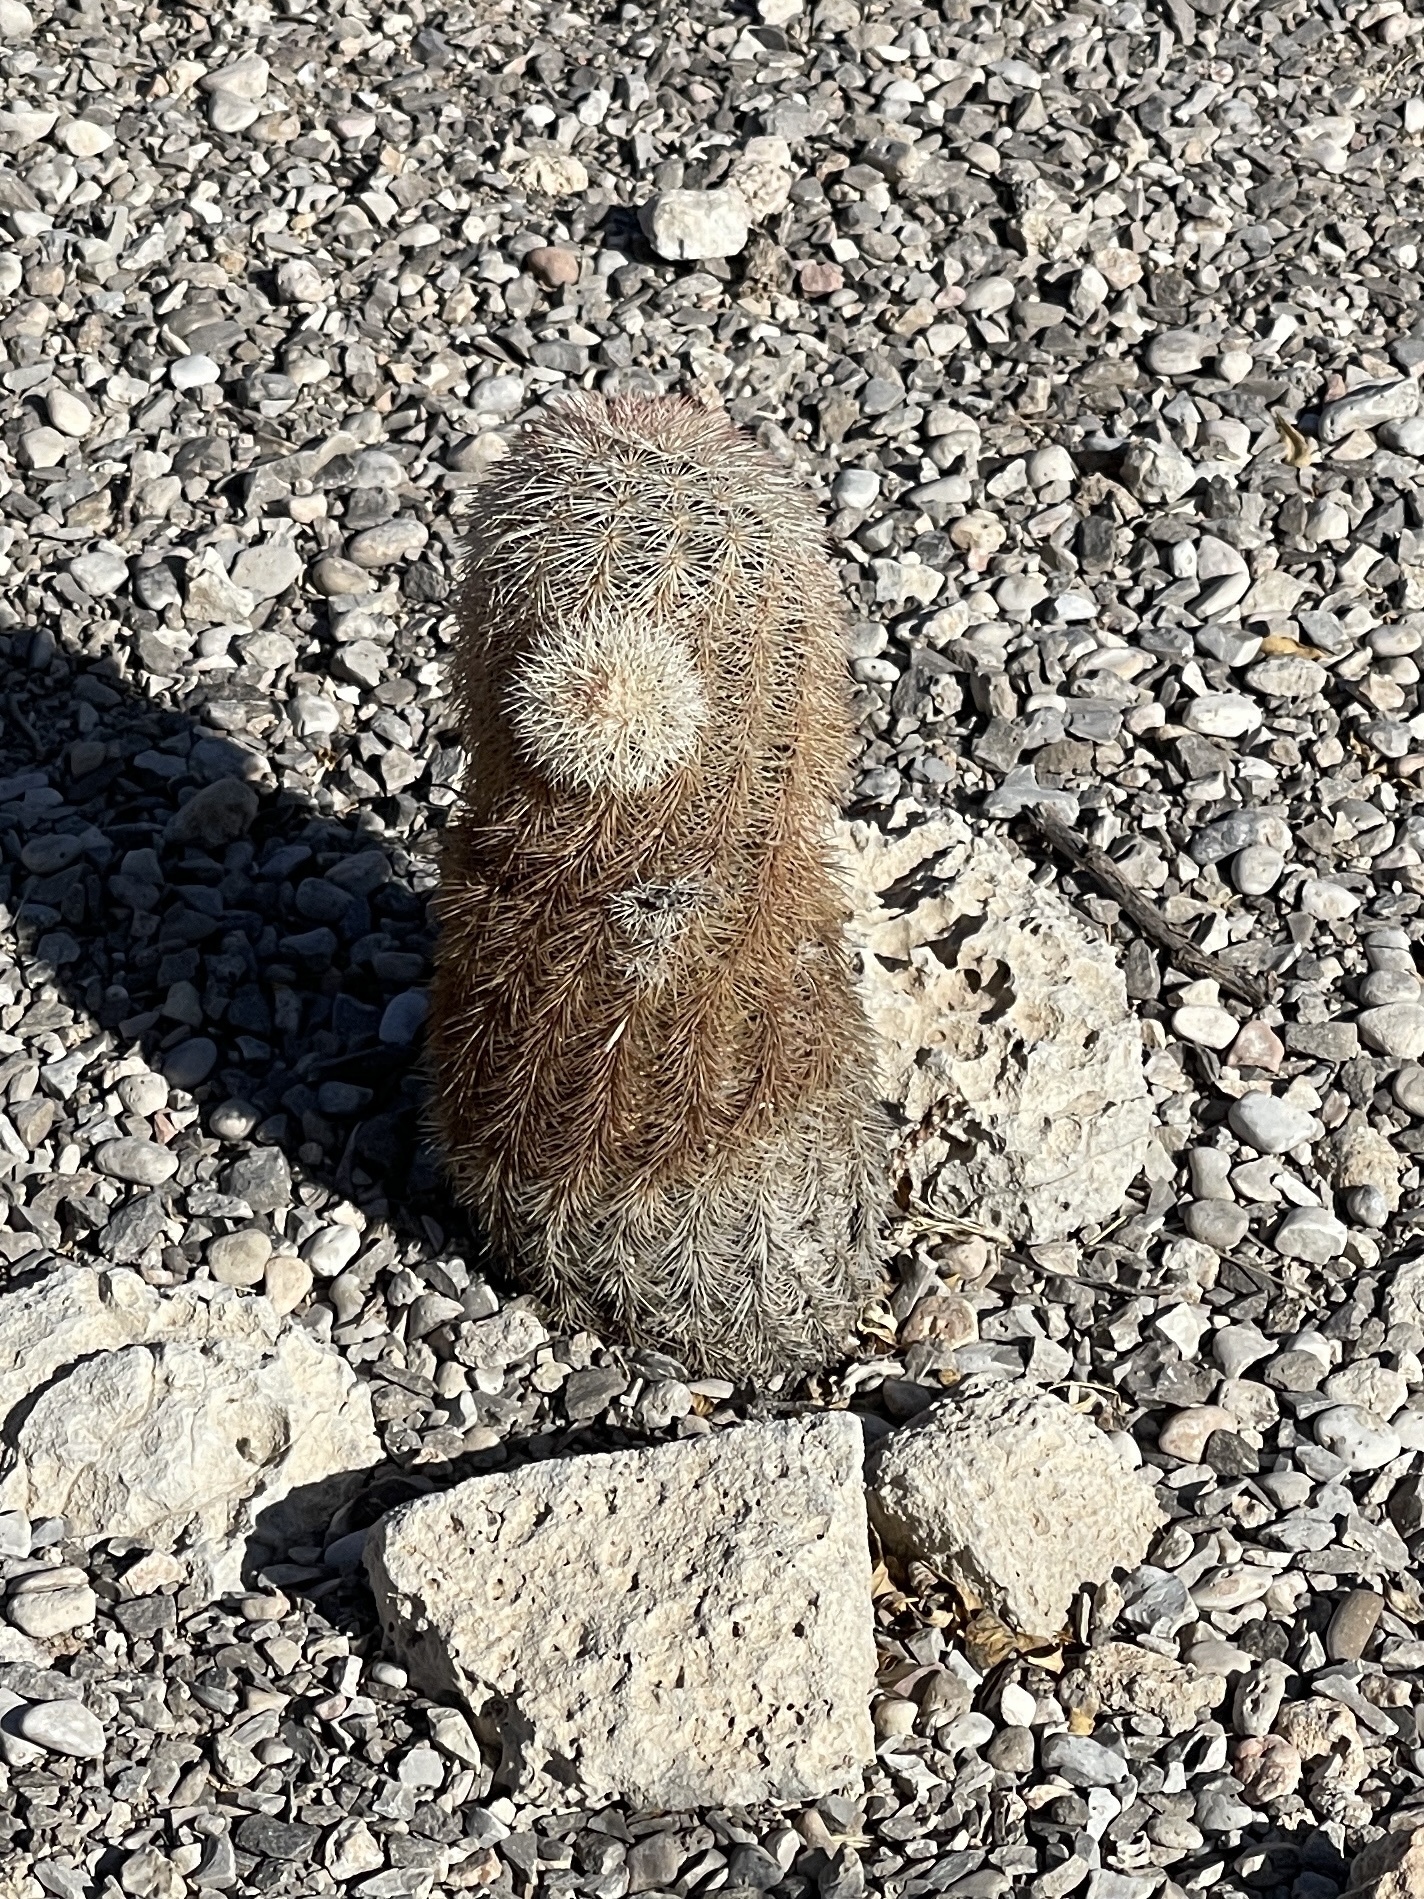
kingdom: Plantae
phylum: Tracheophyta
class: Magnoliopsida
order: Caryophyllales
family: Cactaceae
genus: Echinocereus
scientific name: Echinocereus dasyacanthus
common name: Spiny hedgehog cactus
